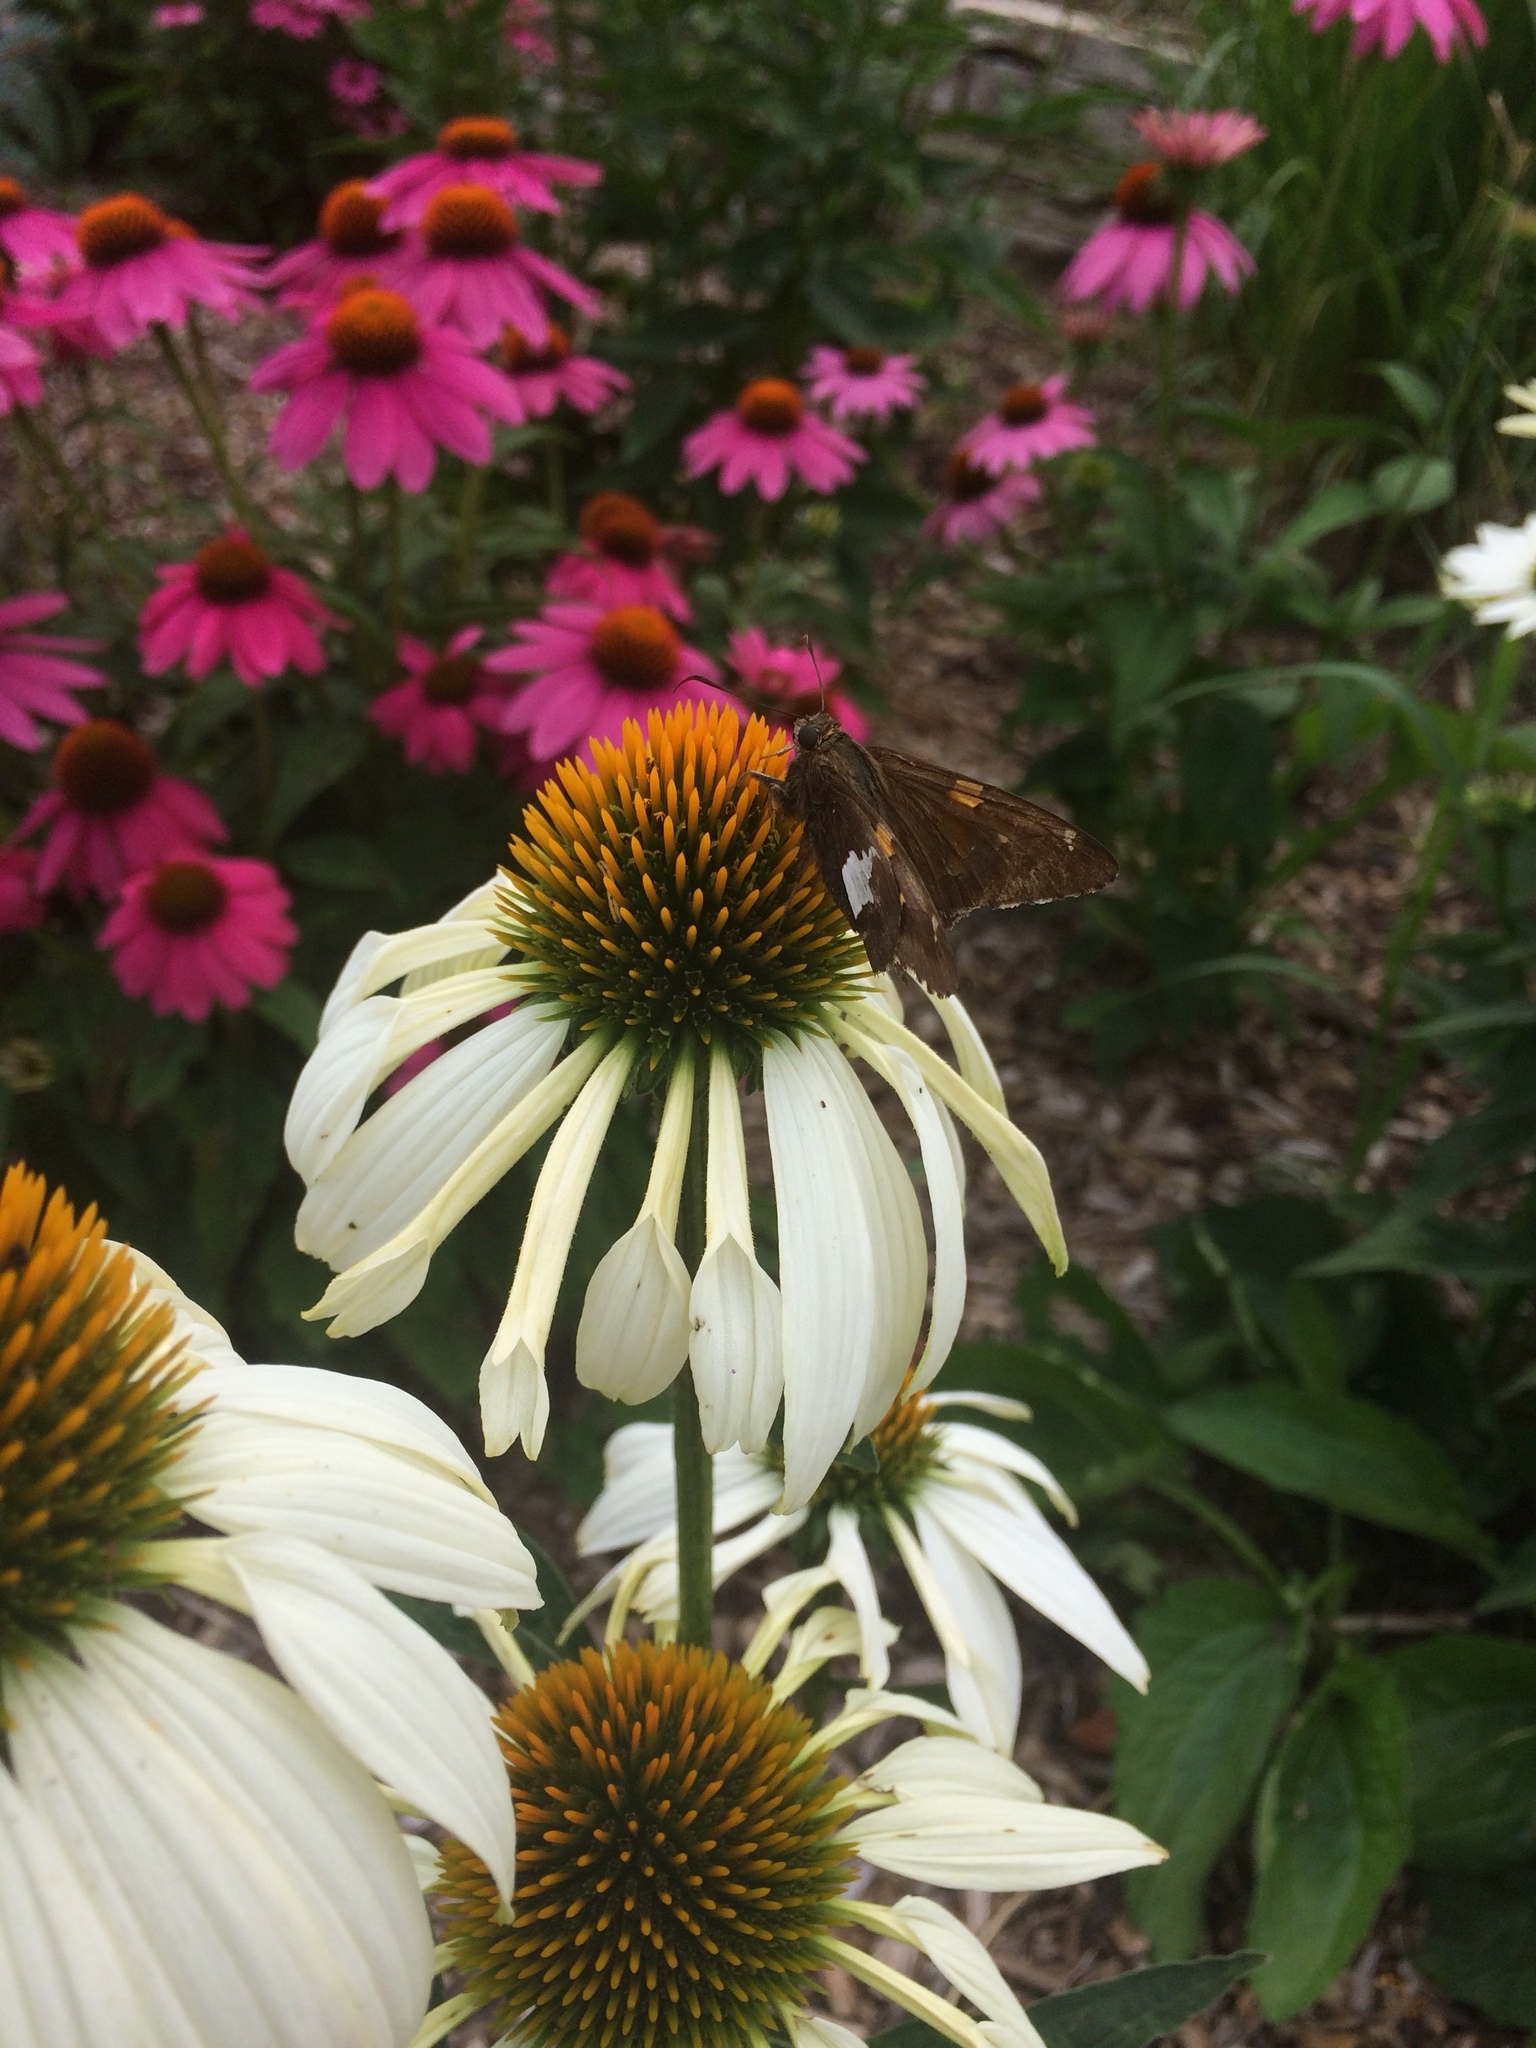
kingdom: Animalia
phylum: Arthropoda
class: Insecta
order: Lepidoptera
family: Hesperiidae
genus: Epargyreus
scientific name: Epargyreus clarus
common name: Silver-spotted skipper
